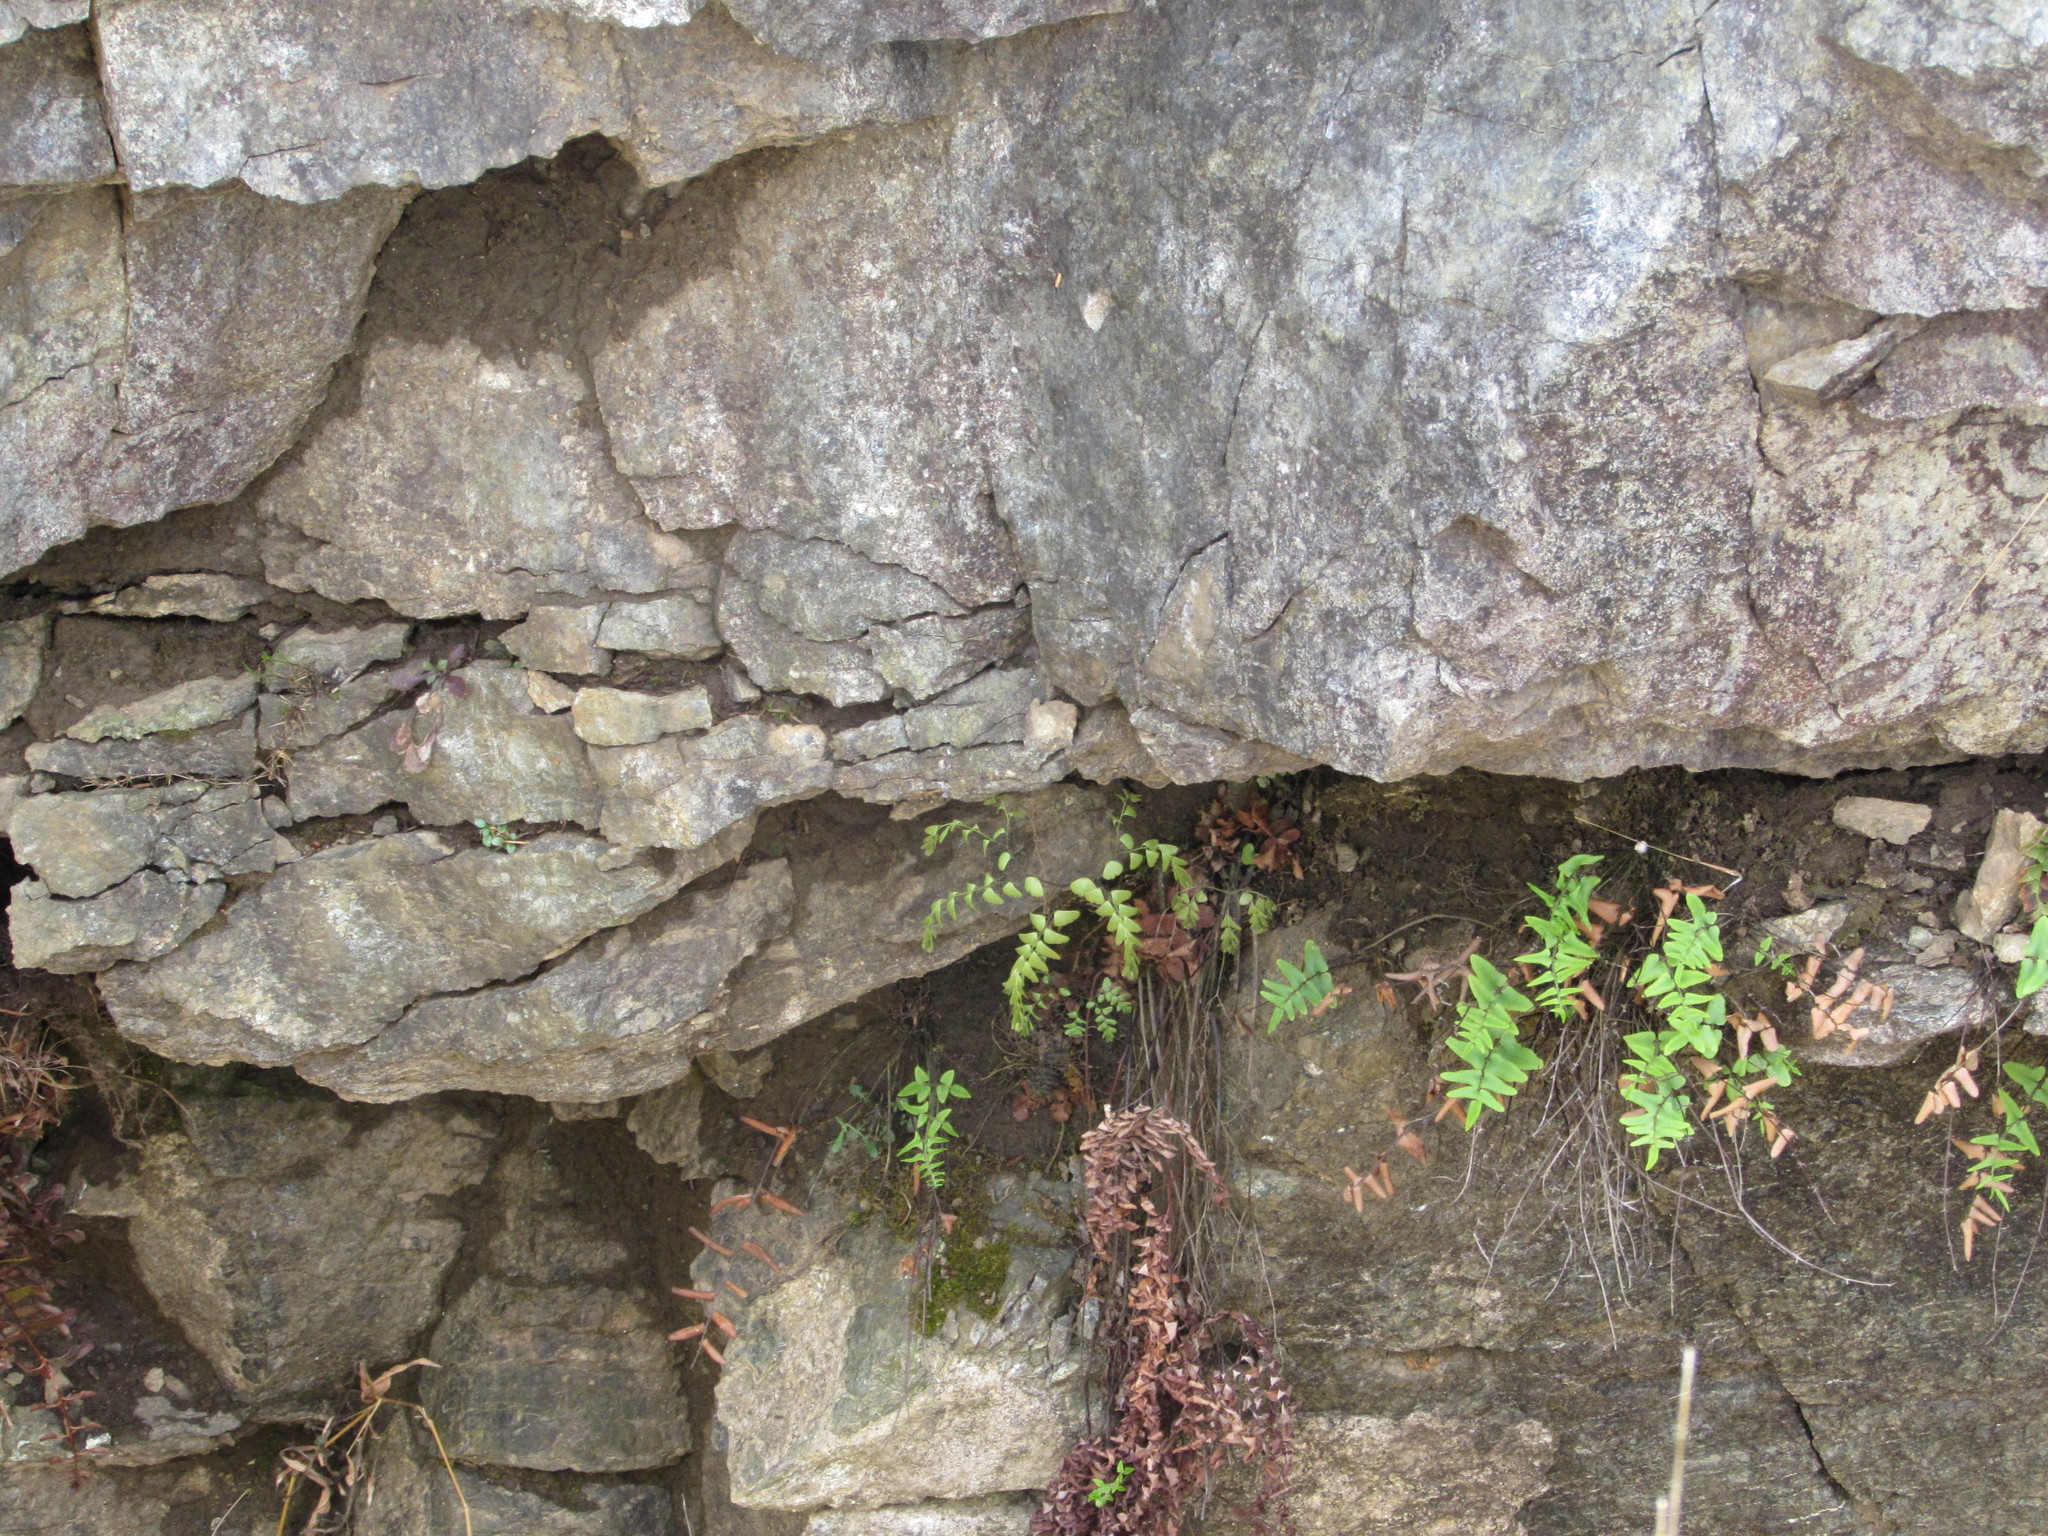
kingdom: Plantae
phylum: Tracheophyta
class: Polypodiopsida
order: Polypodiales
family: Pteridaceae
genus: Pellaea
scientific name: Pellaea atropurpurea
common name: Hairy cliffbrake
